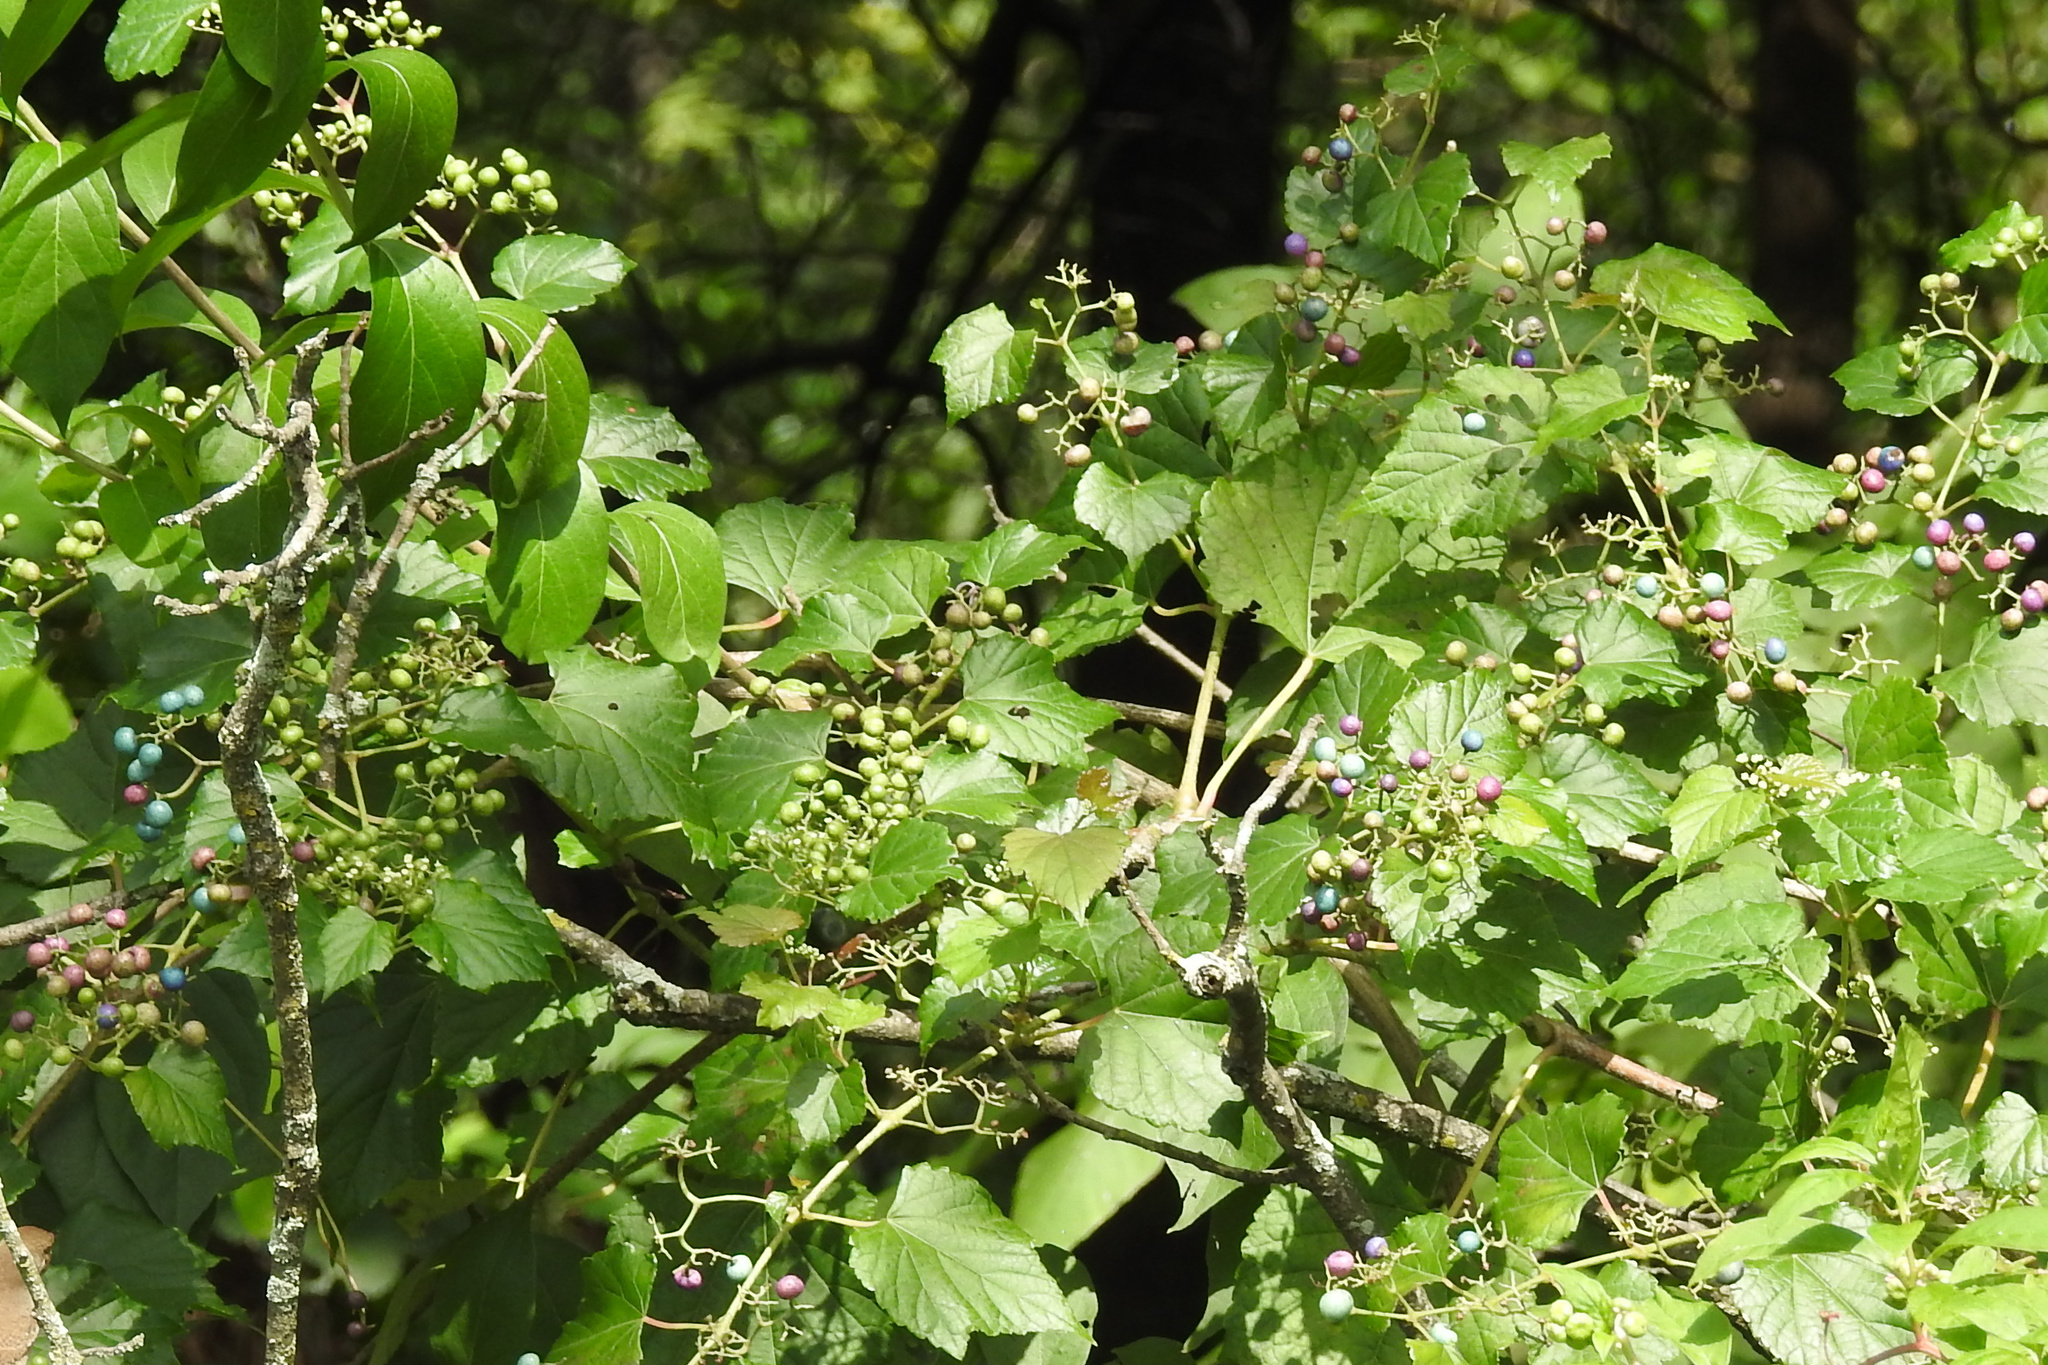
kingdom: Plantae
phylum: Tracheophyta
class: Magnoliopsida
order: Vitales
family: Vitaceae
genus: Ampelopsis
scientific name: Ampelopsis glandulosa
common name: Amur peppervine
